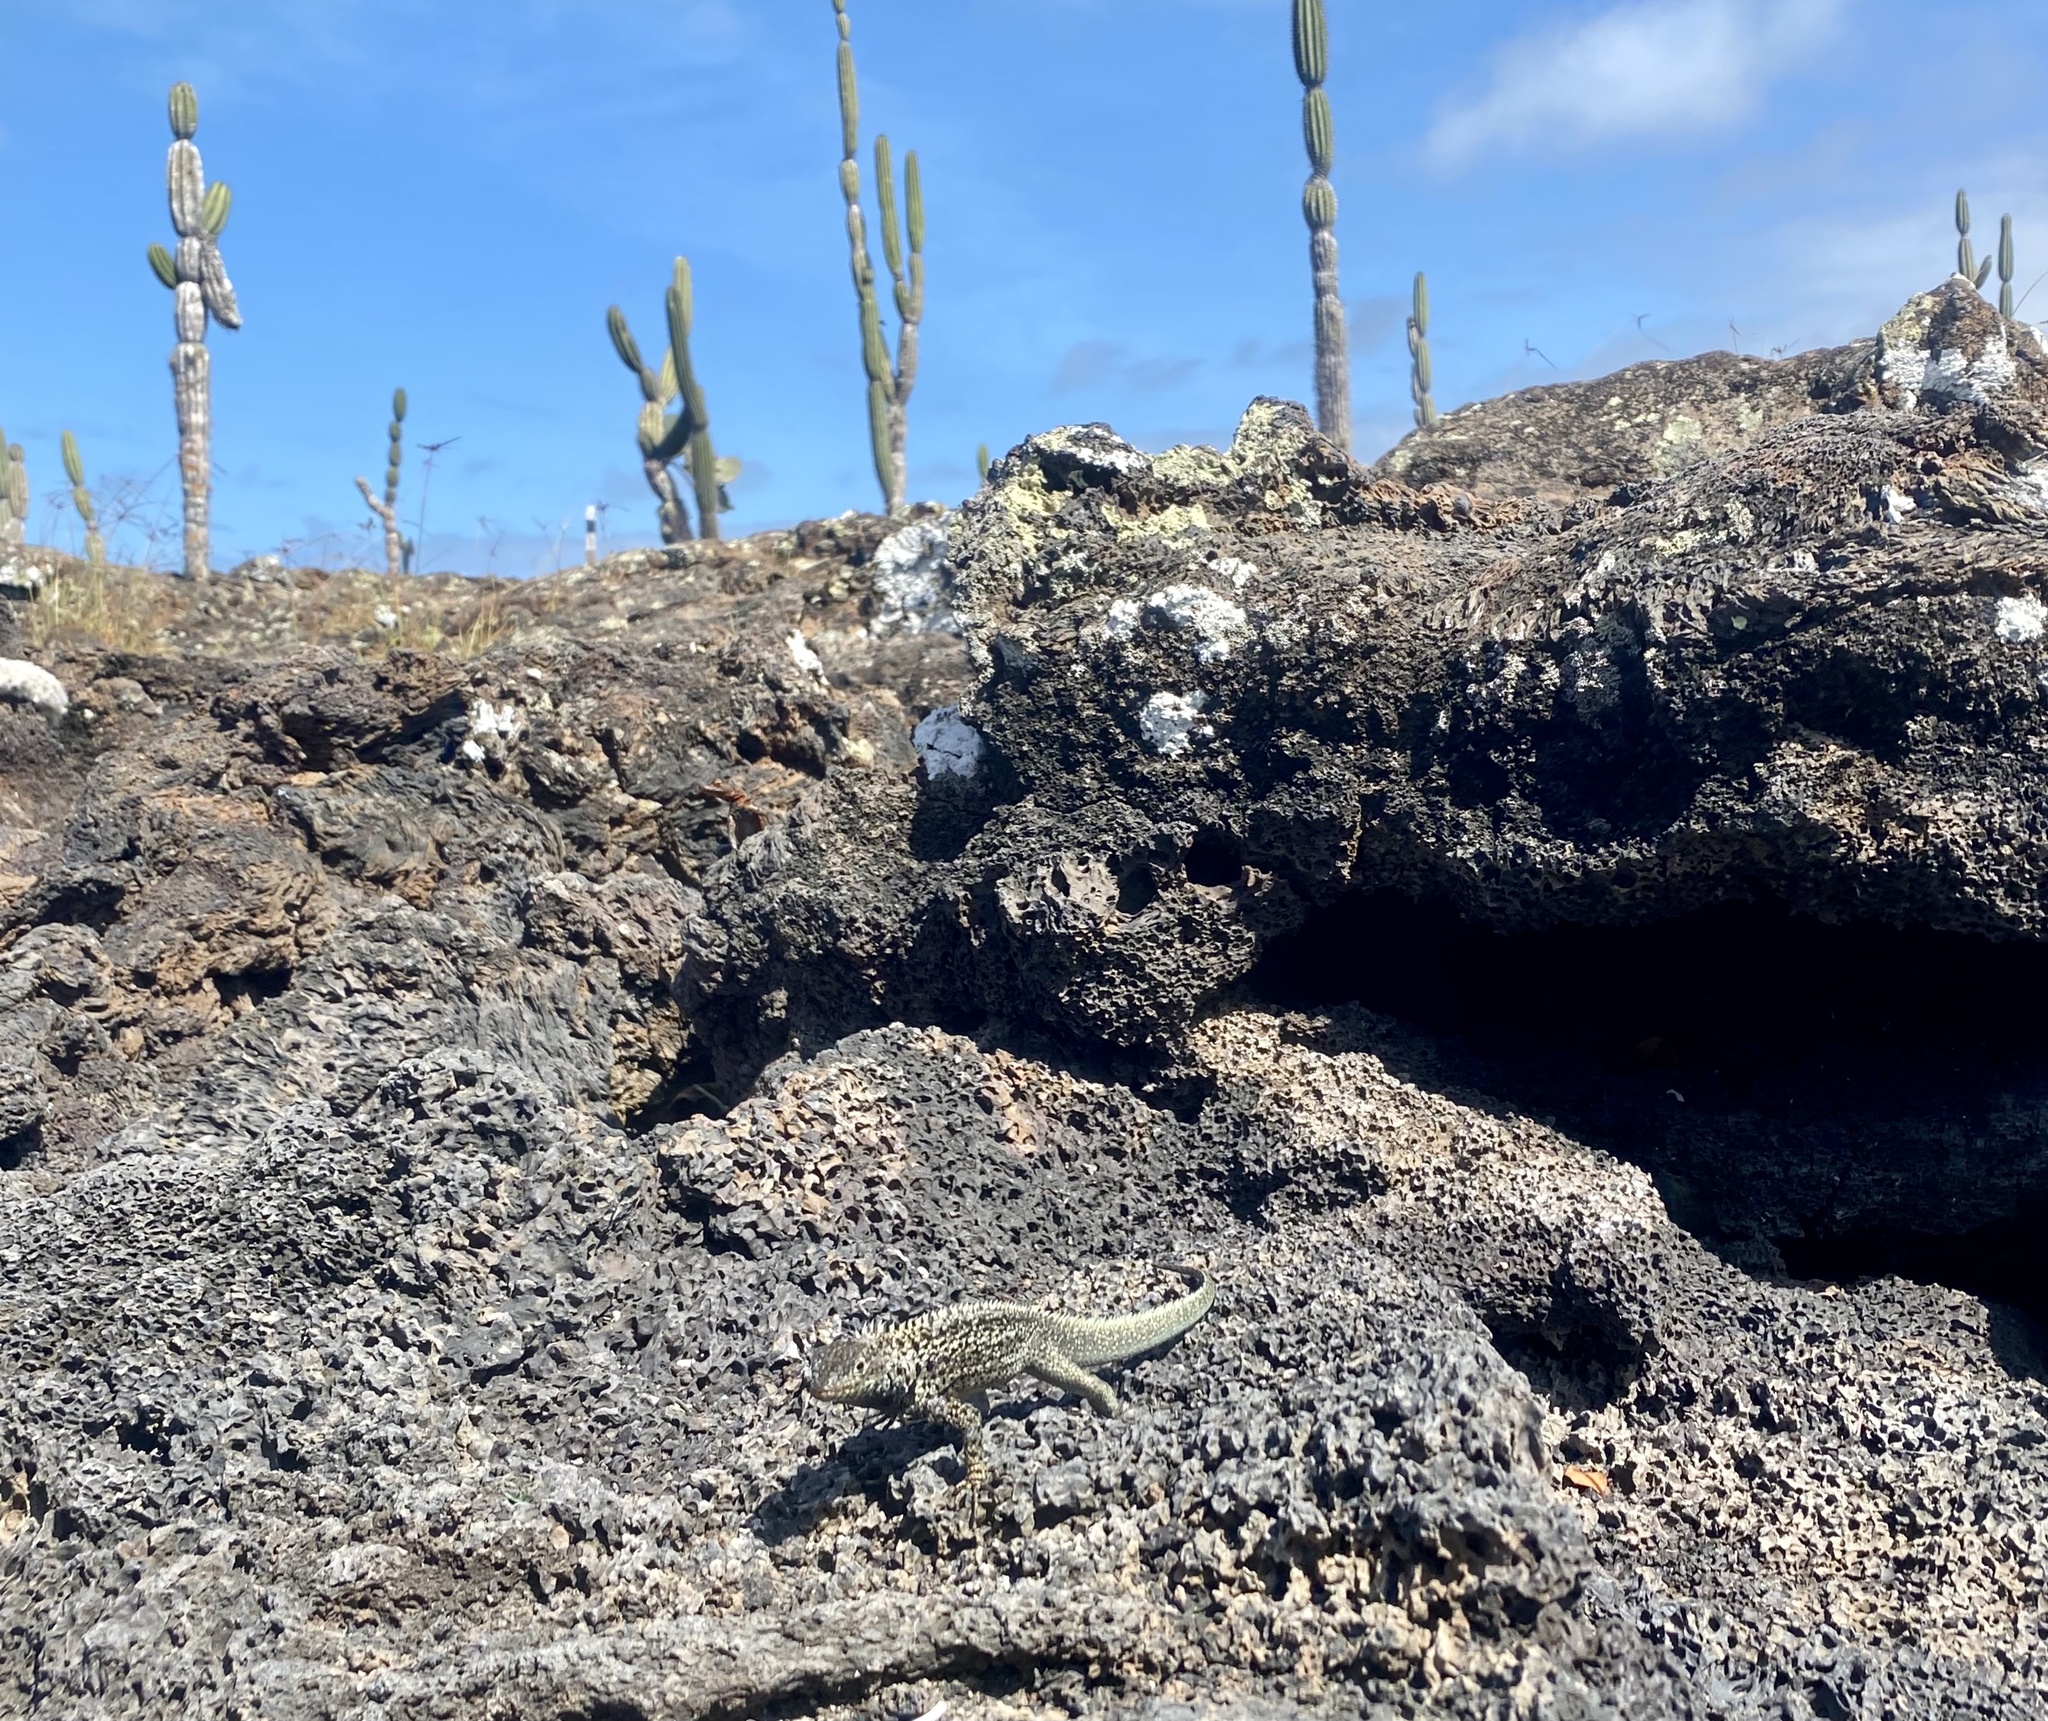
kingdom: Animalia
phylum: Chordata
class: Squamata
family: Tropiduridae
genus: Microlophus
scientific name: Microlophus albemarlensis
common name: Galapagos lava lizard
